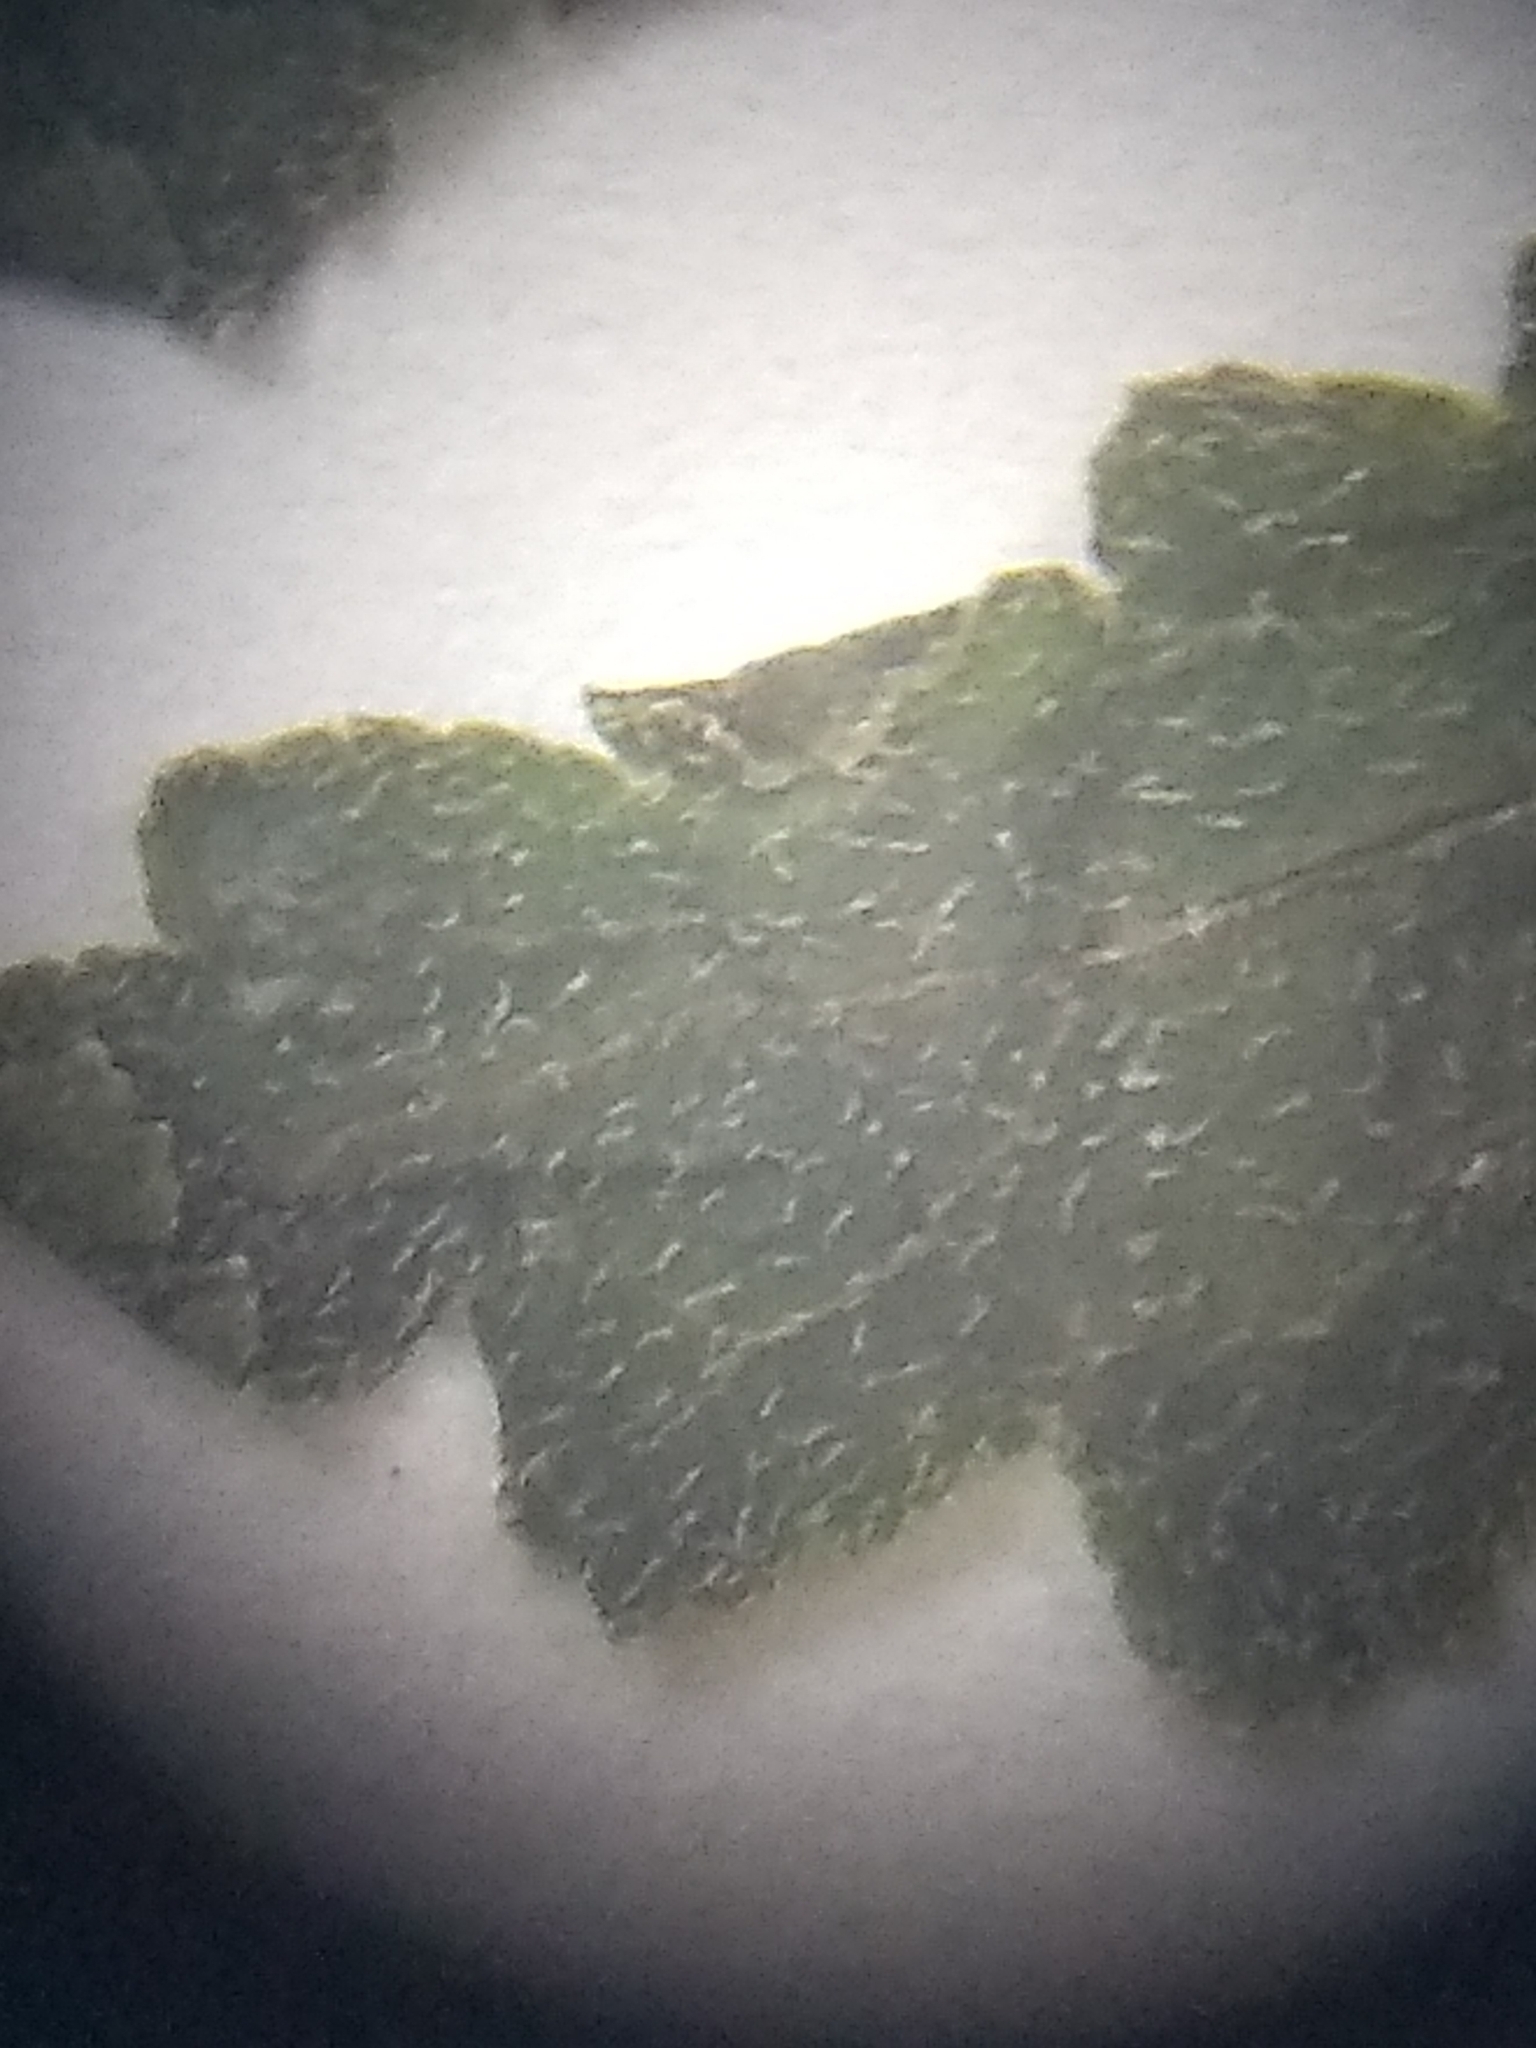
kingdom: Plantae
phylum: Tracheophyta
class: Magnoliopsida
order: Lamiales
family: Orobanchaceae
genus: Pedicularis
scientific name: Pedicularis canadensis
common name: Early lousewort
